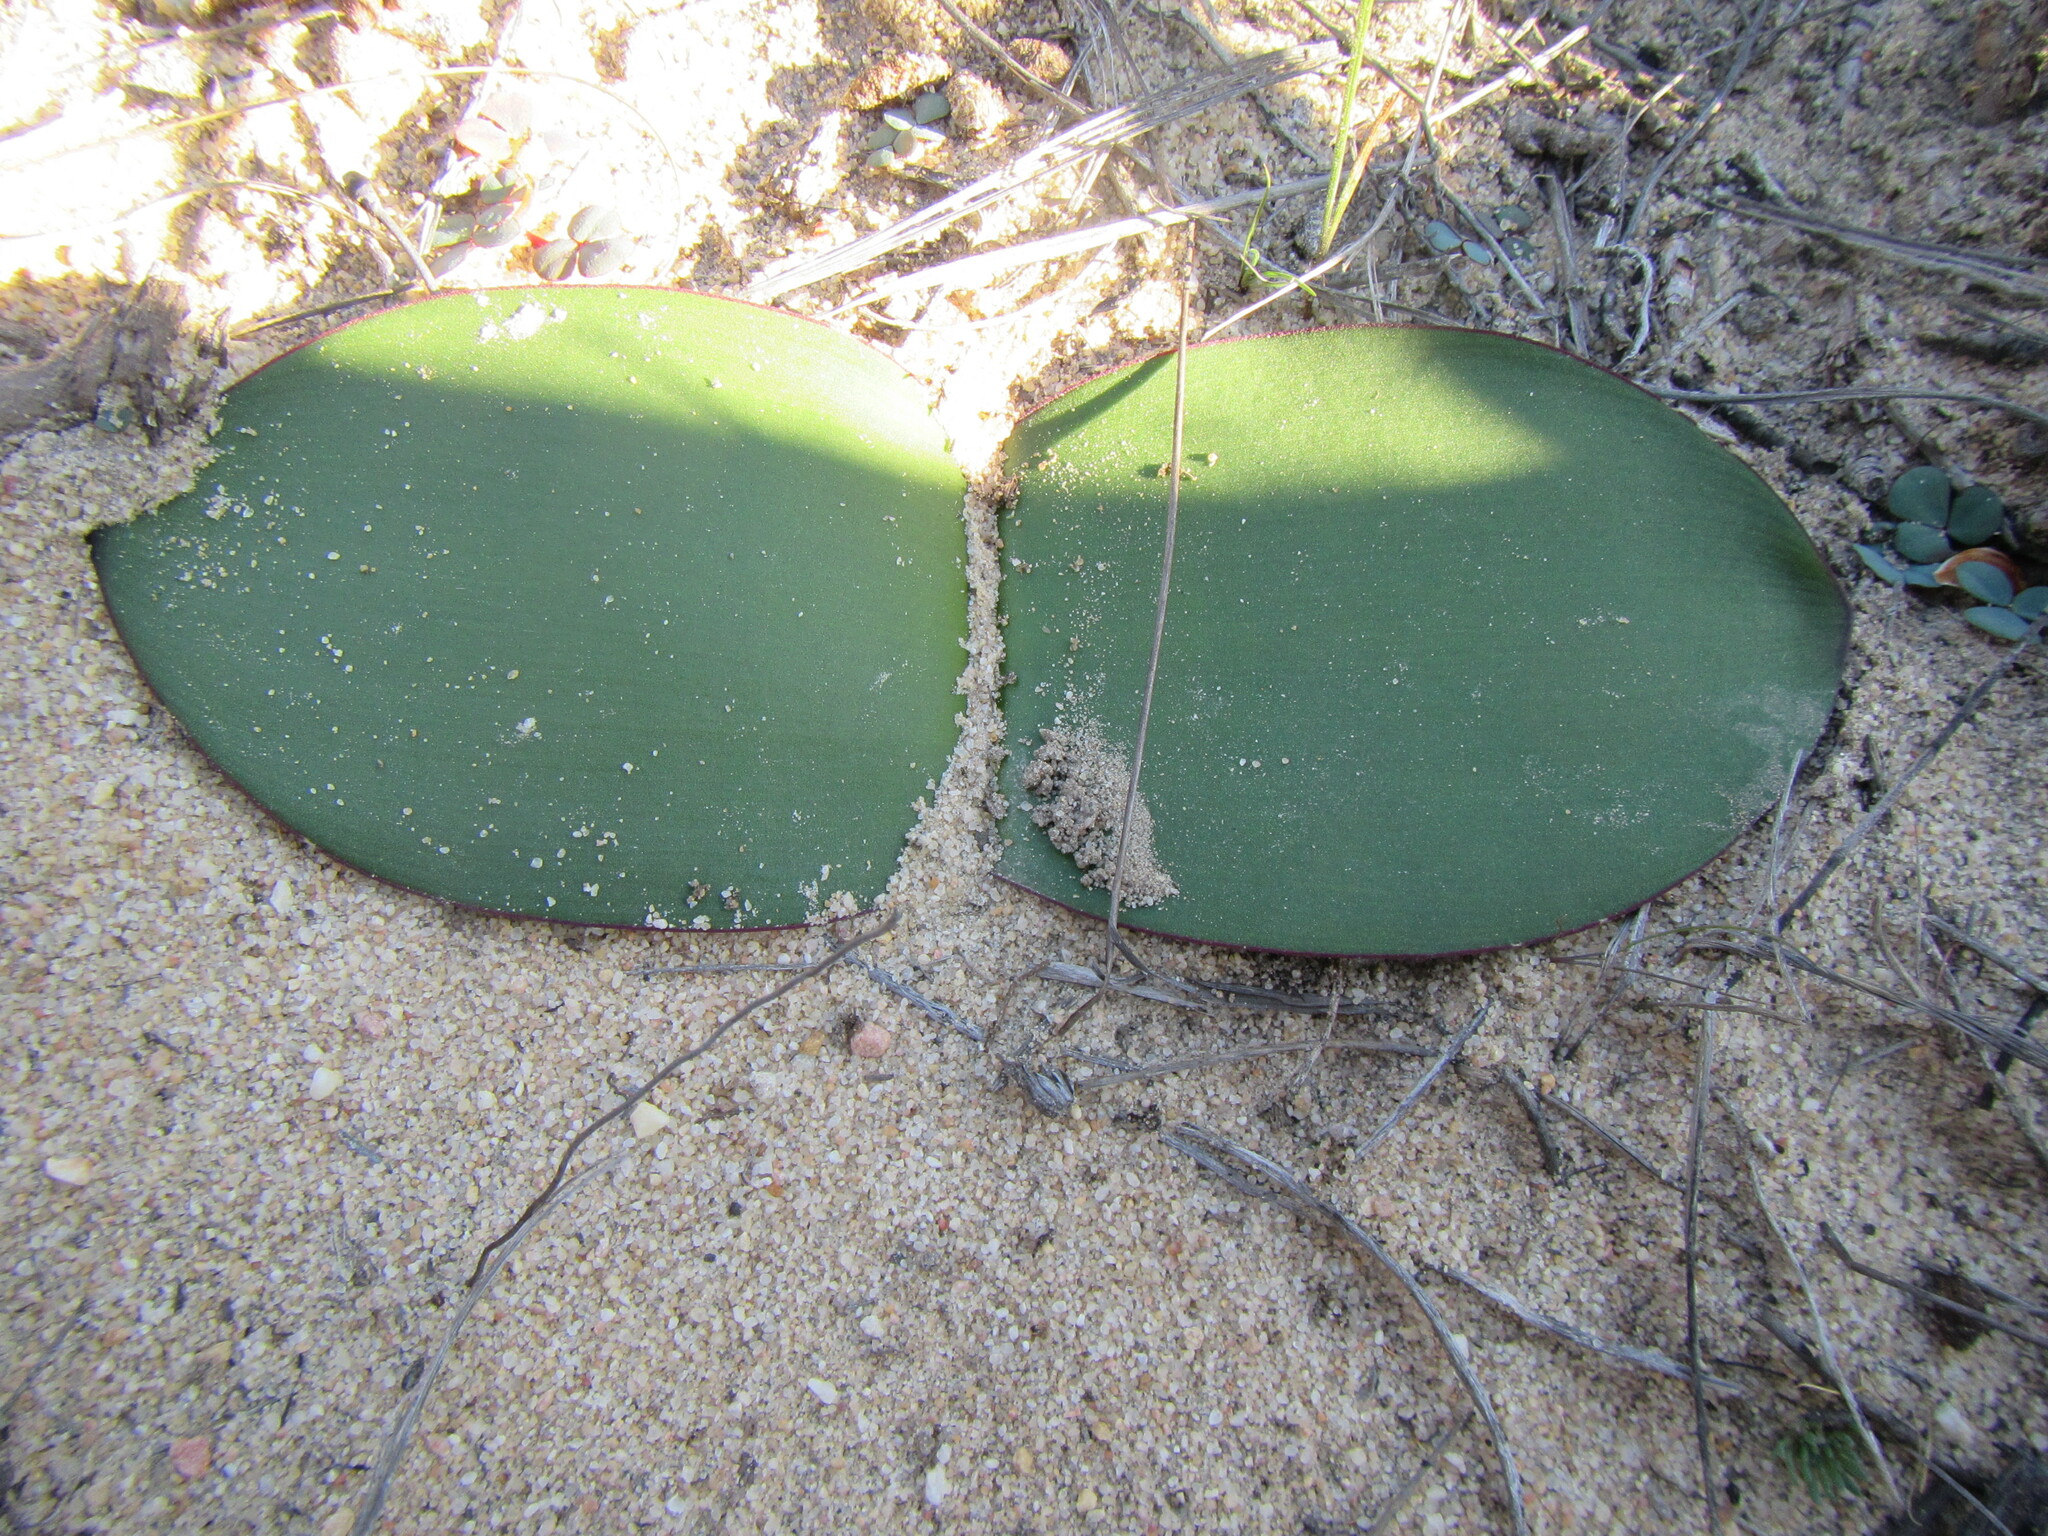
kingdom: Plantae
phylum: Tracheophyta
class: Liliopsida
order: Asparagales
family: Amaryllidaceae
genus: Haemanthus
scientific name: Haemanthus sanguineus
